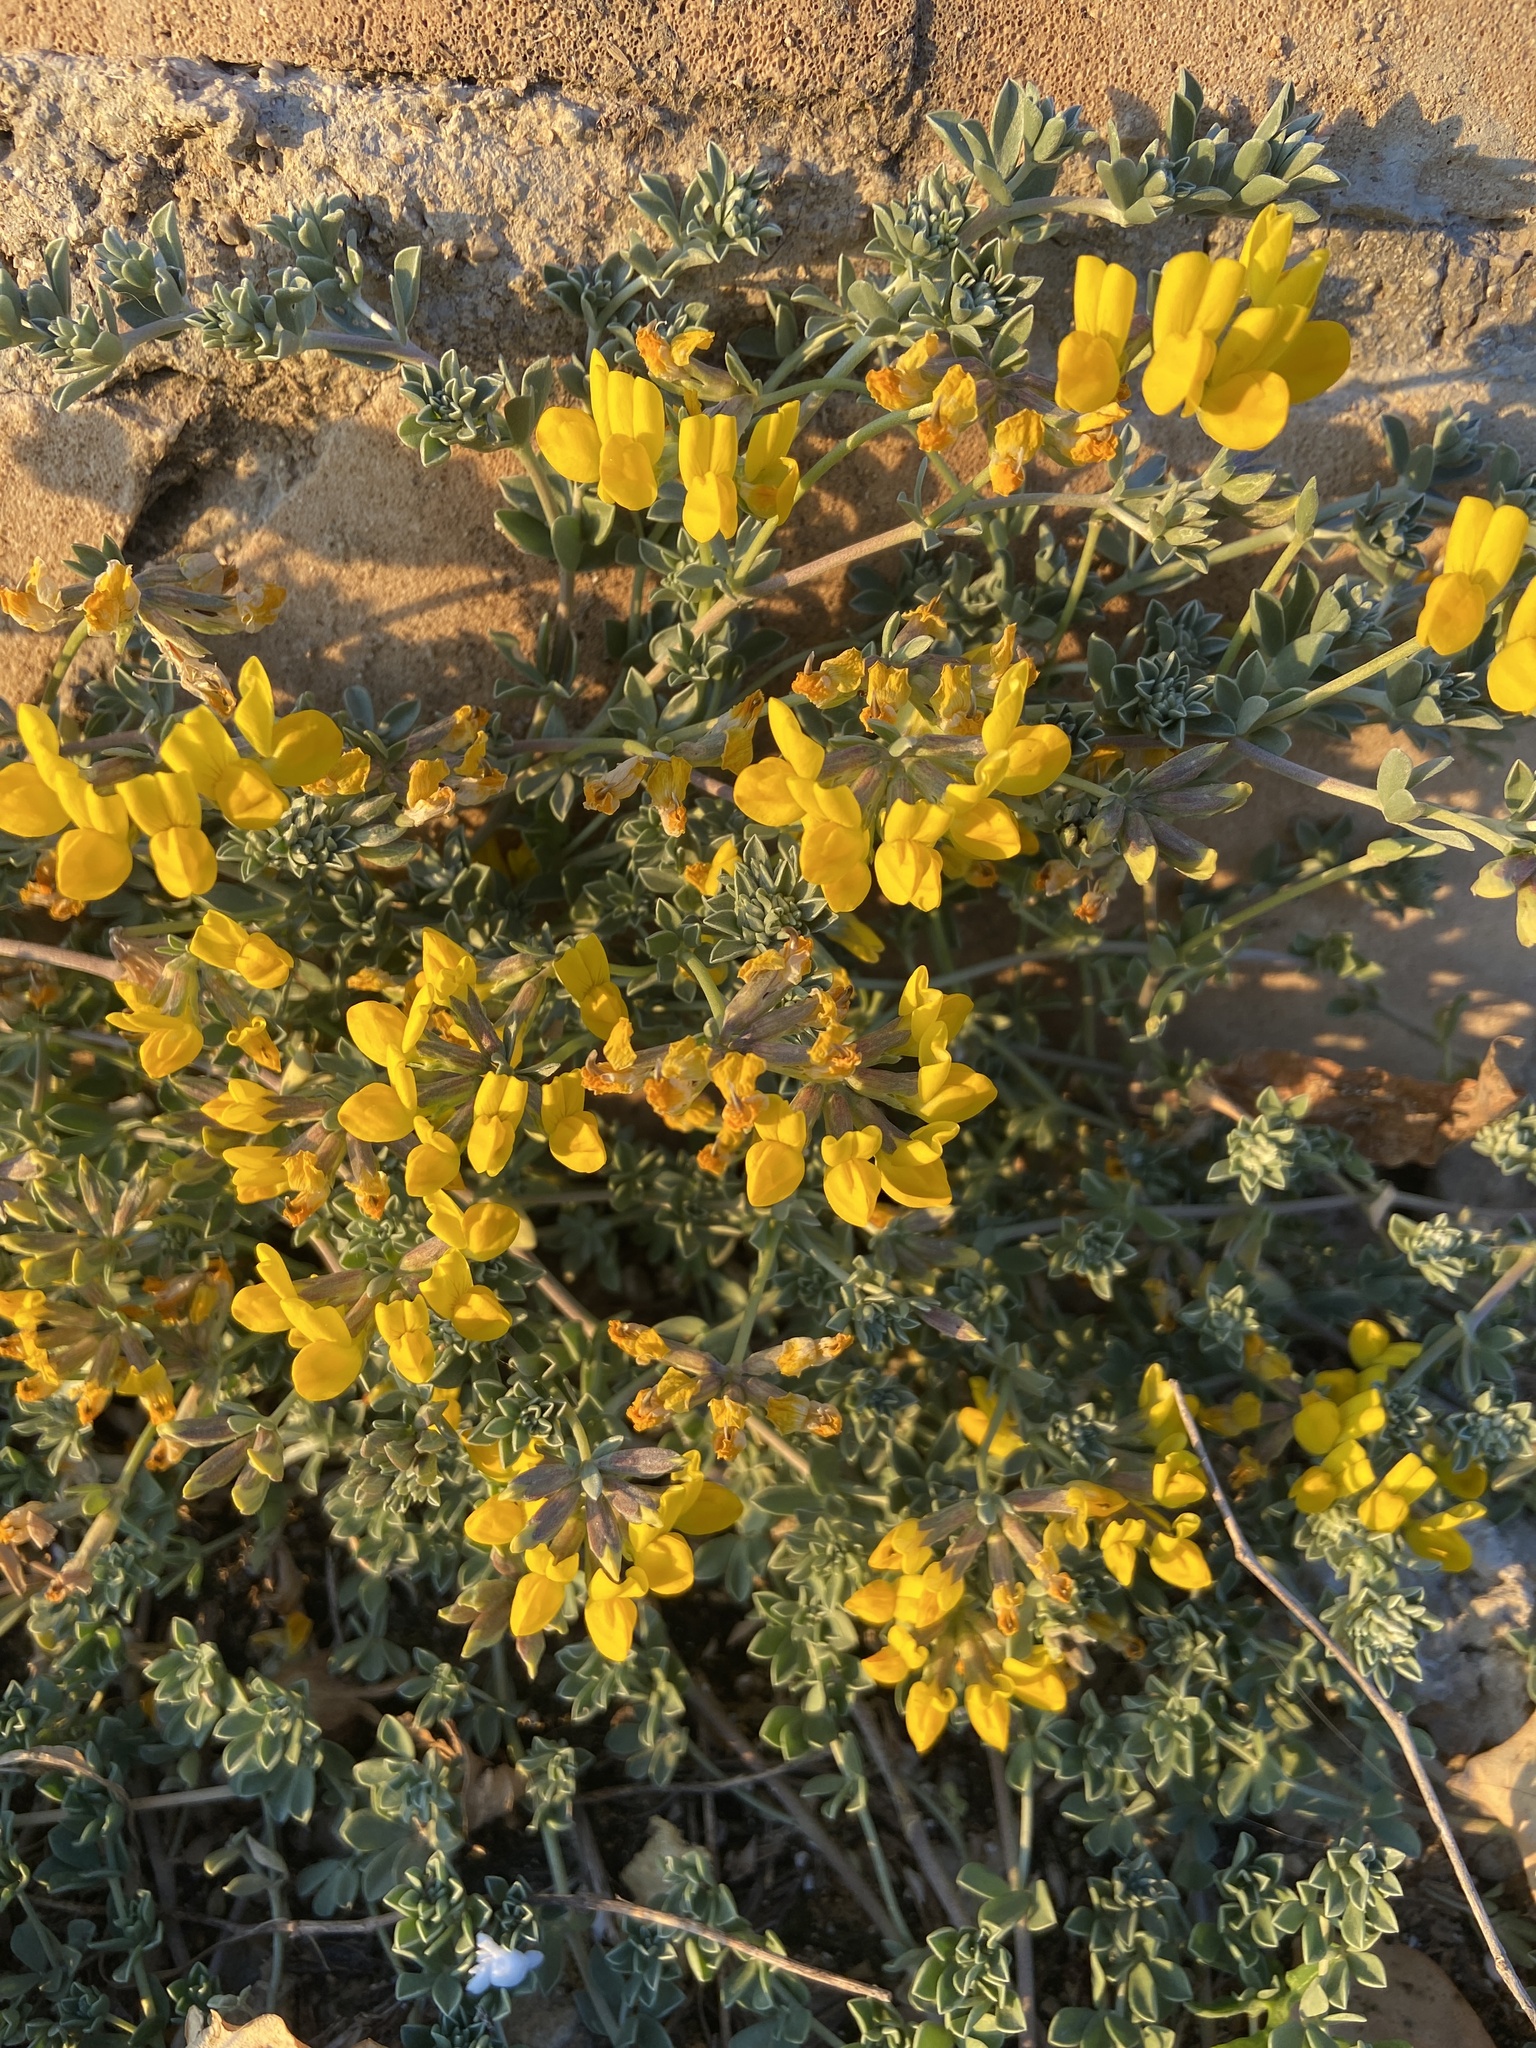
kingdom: Plantae
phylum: Tracheophyta
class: Magnoliopsida
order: Fabales
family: Fabaceae
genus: Lotus
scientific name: Lotus cytisoides
